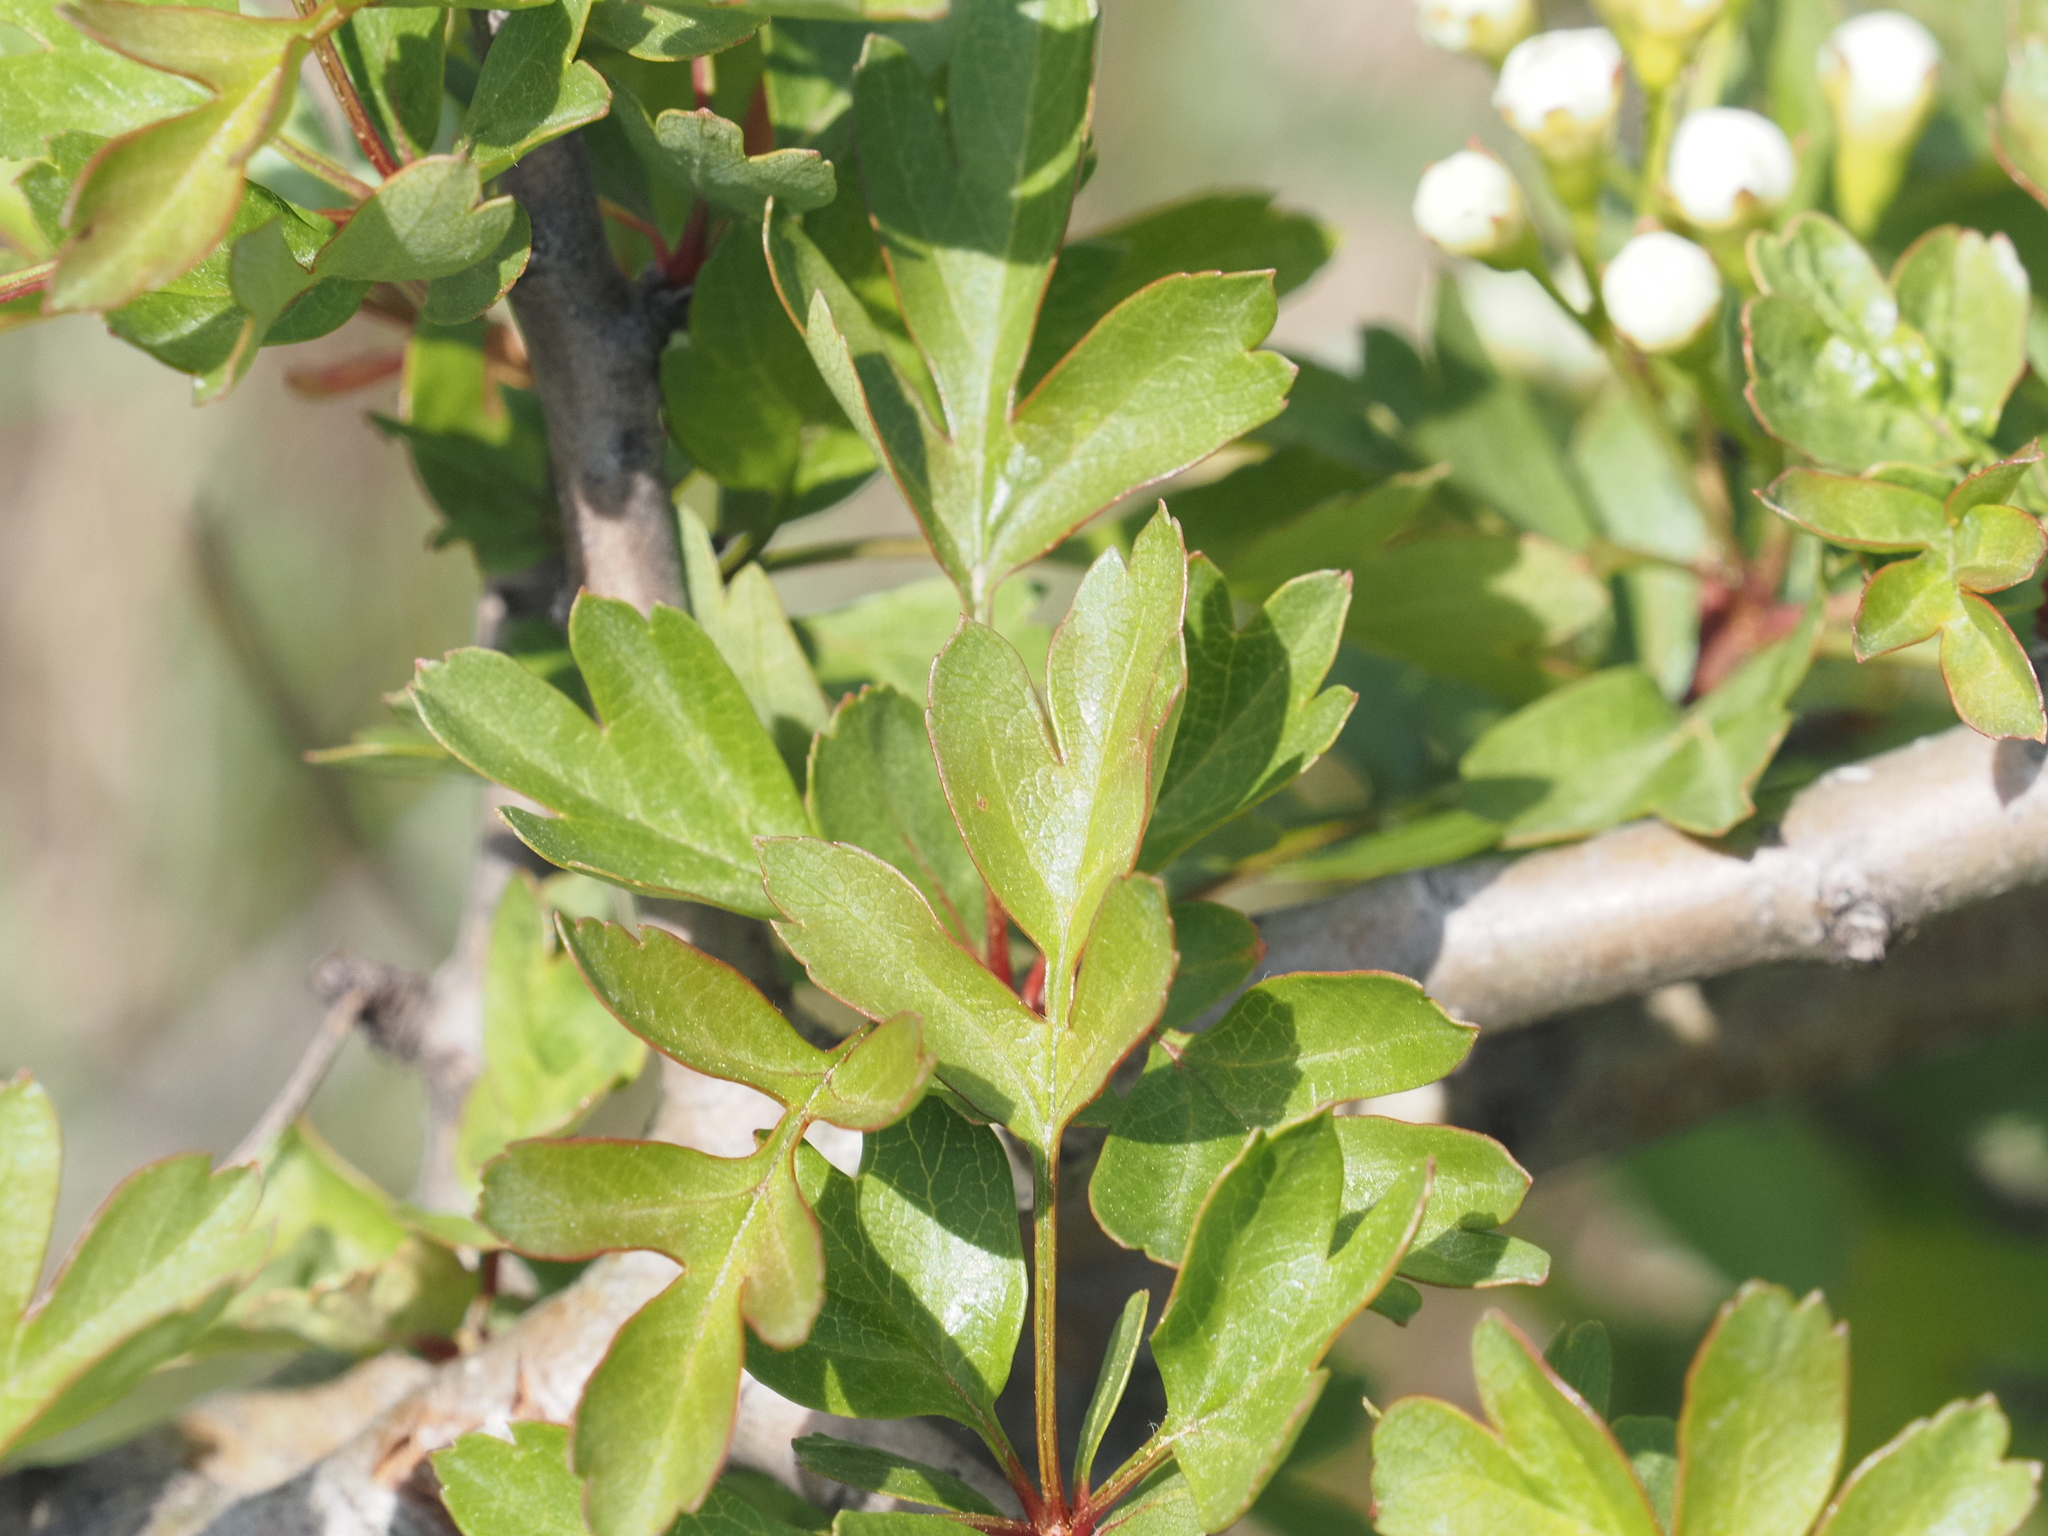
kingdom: Plantae
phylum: Tracheophyta
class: Magnoliopsida
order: Rosales
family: Rosaceae
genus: Crataegus
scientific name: Crataegus monogyna
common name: Hawthorn
